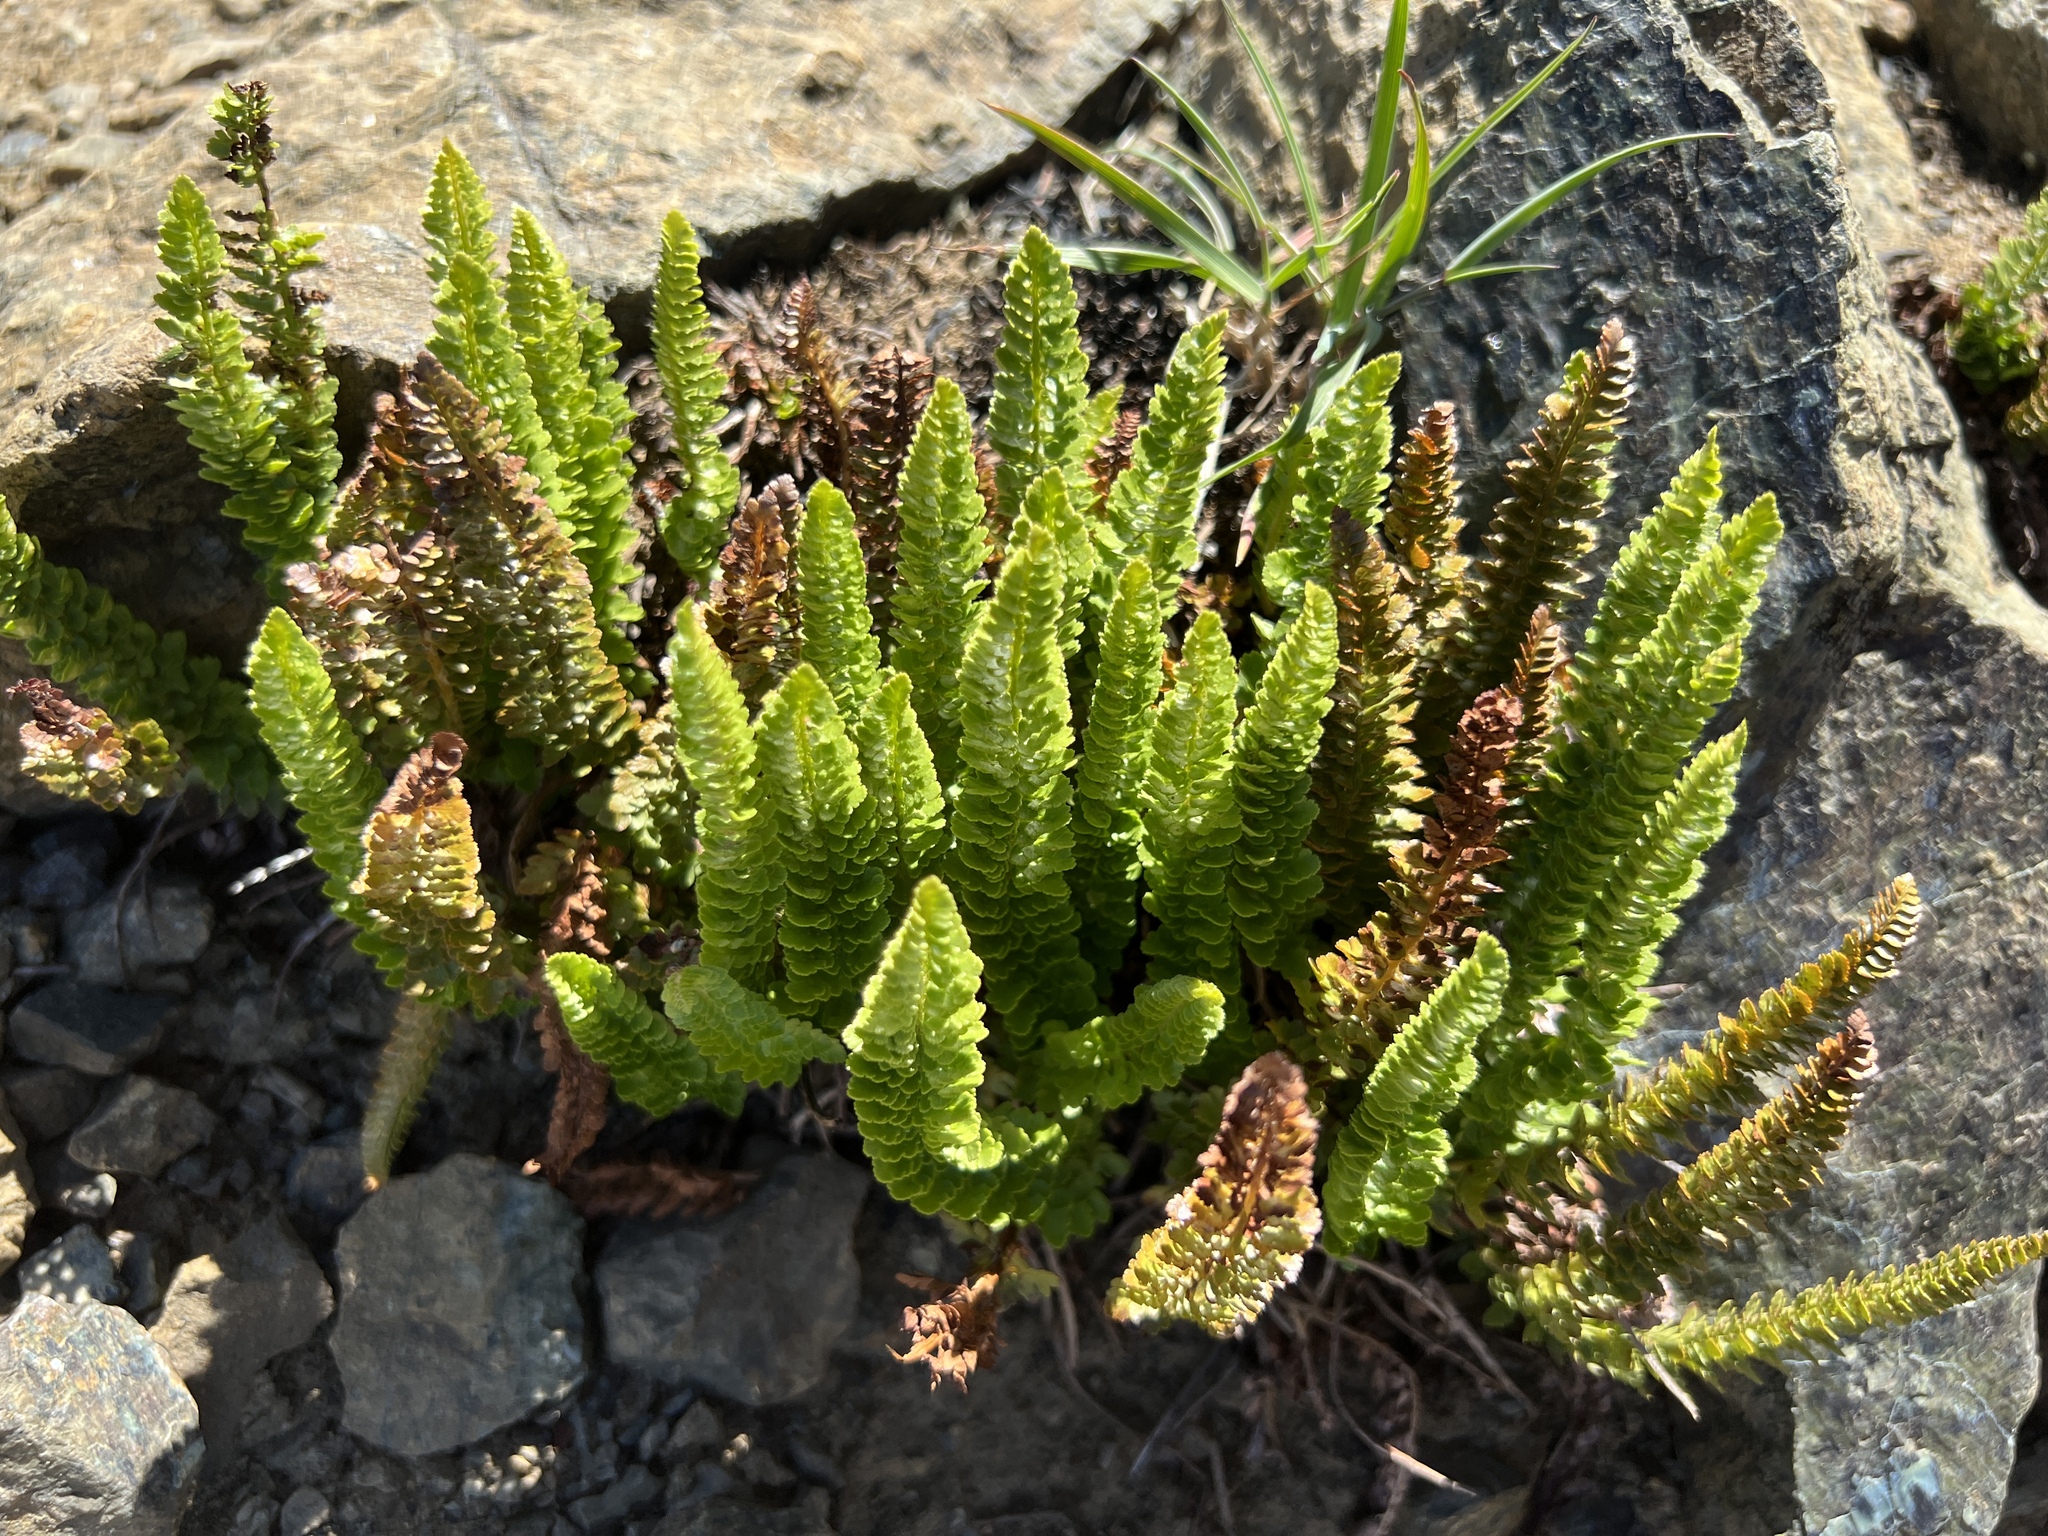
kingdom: Plantae
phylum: Tracheophyta
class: Polypodiopsida
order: Polypodiales
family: Dryopteridaceae
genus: Polystichum
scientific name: Polystichum lemmonii
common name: Lemmon's holly fern
